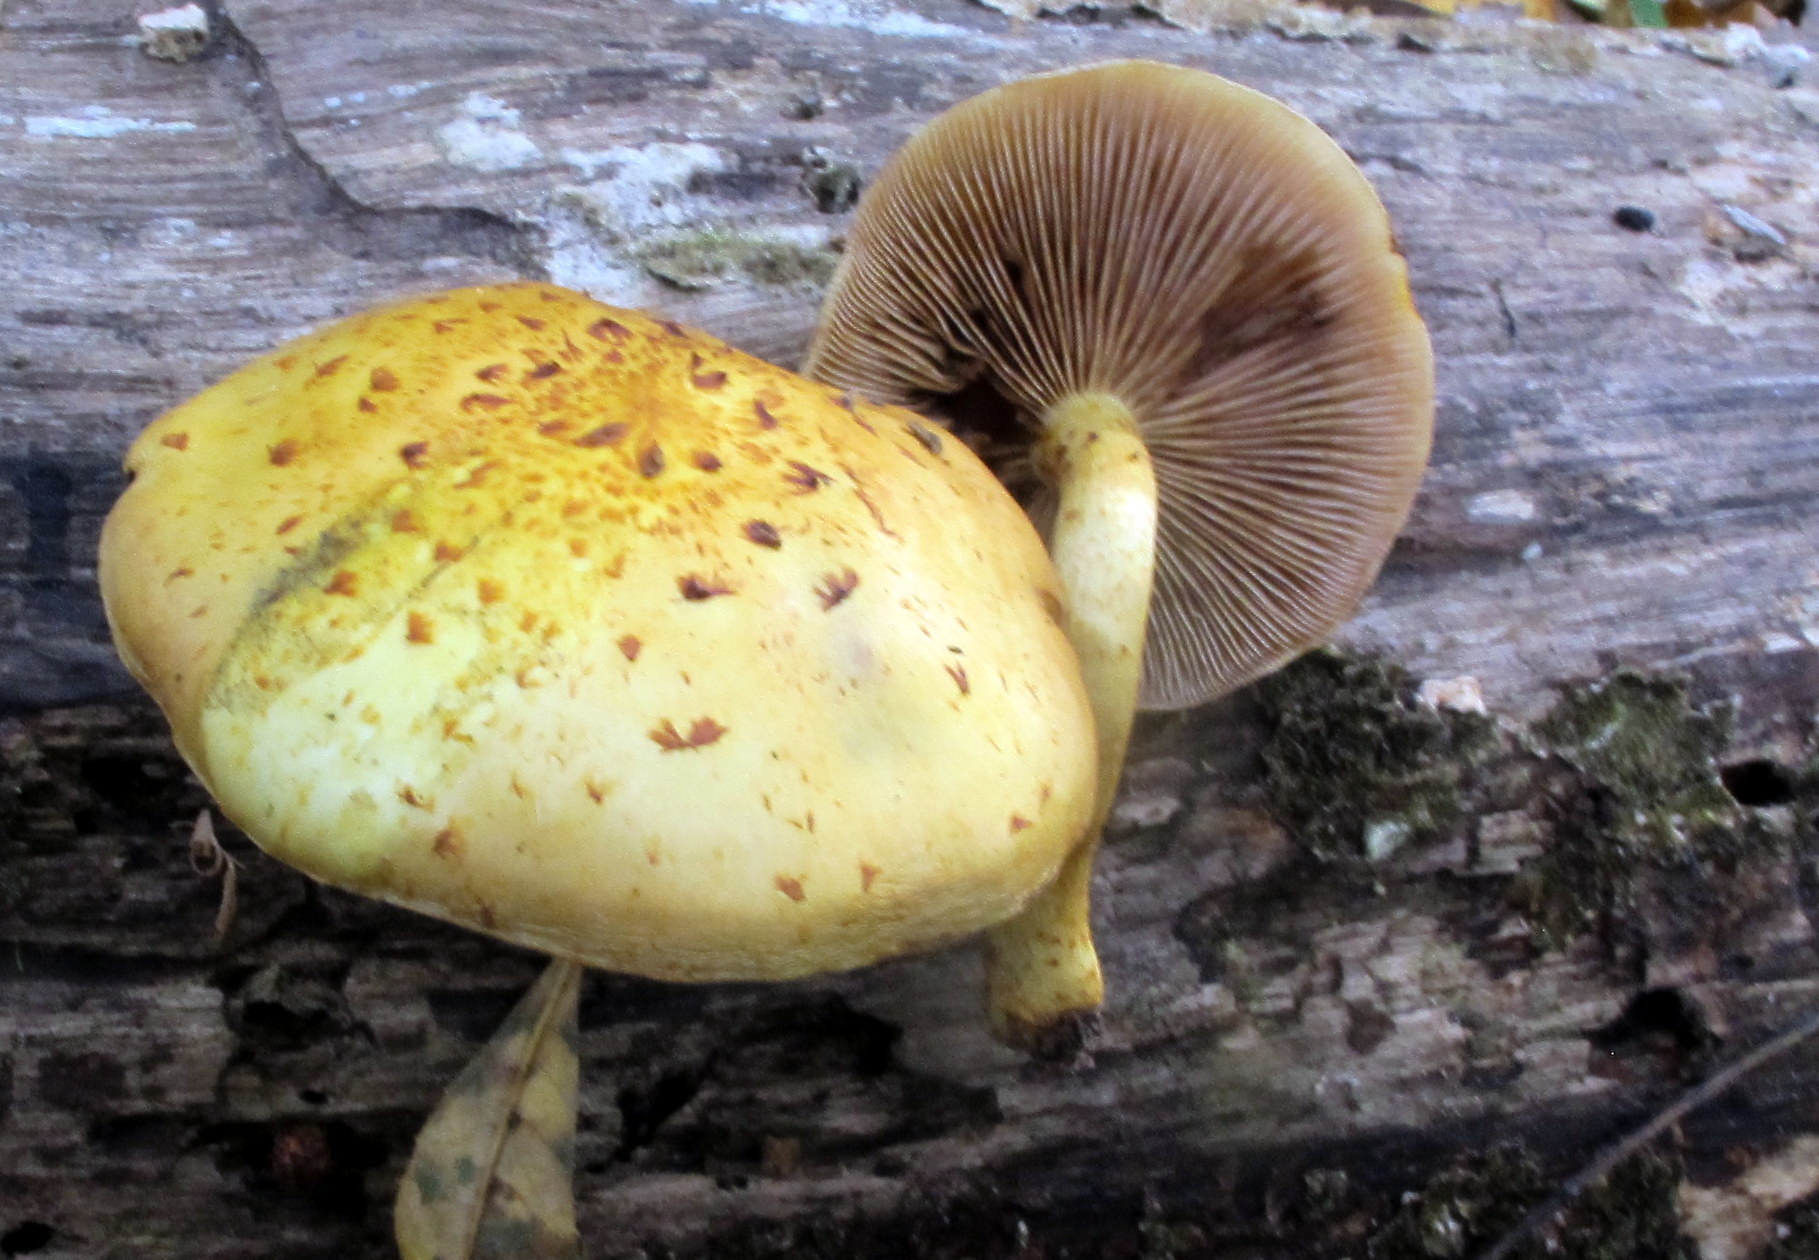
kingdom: Fungi
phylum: Basidiomycota
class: Agaricomycetes
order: Agaricales
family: Strophariaceae
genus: Pholiota
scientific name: Pholiota aurivella
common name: Golden scalycap
